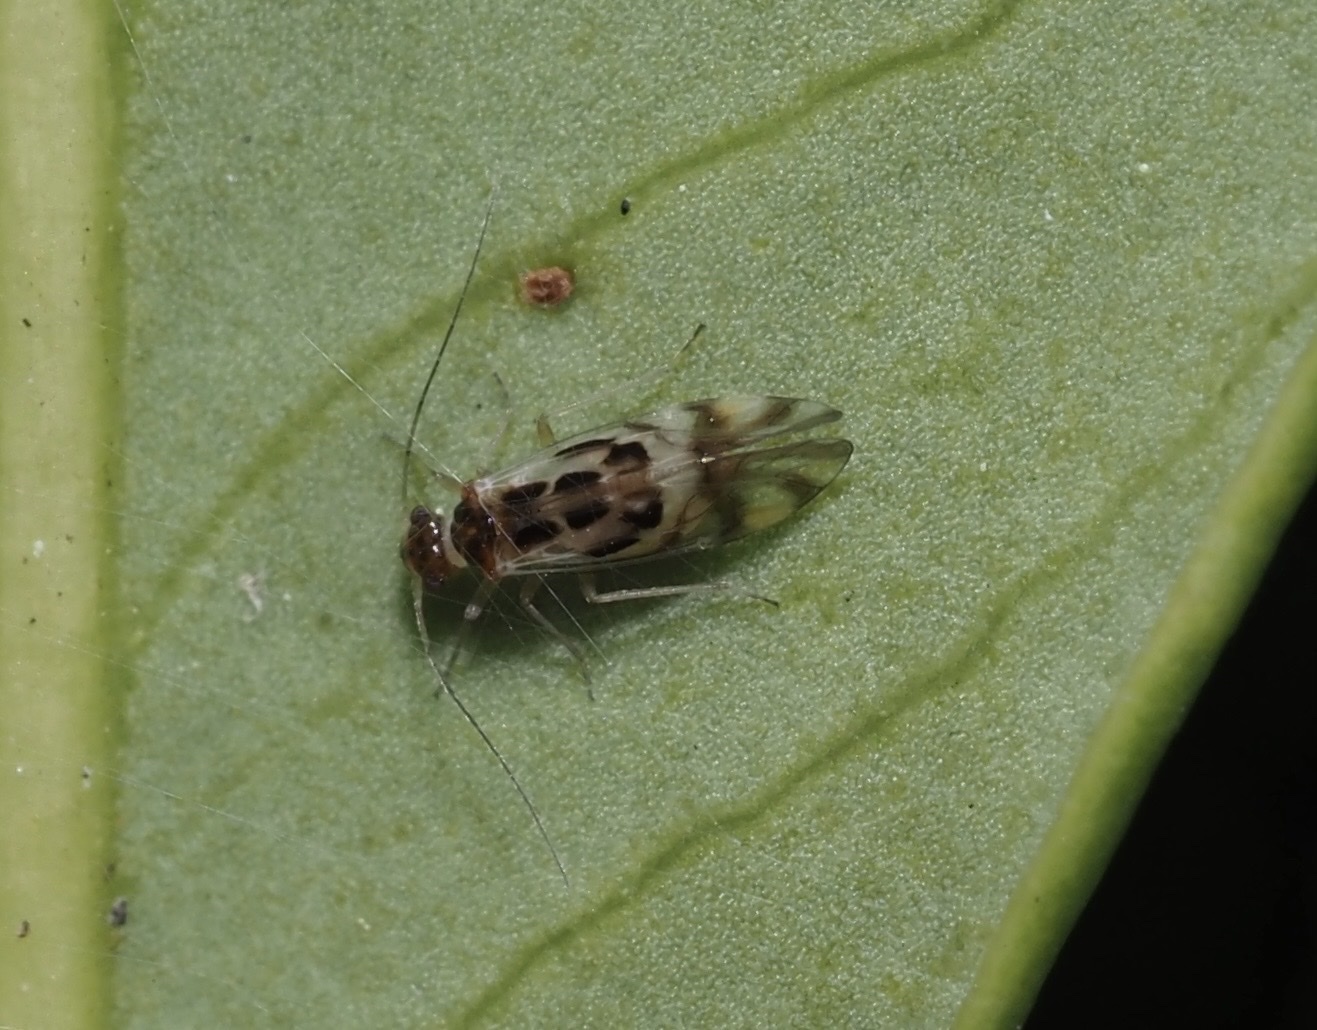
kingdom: Animalia
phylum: Arthropoda
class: Insecta
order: Psocodea
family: Stenopsocidae
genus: Graphopsocus
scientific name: Graphopsocus cruciatus
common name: Lizard bark louse
